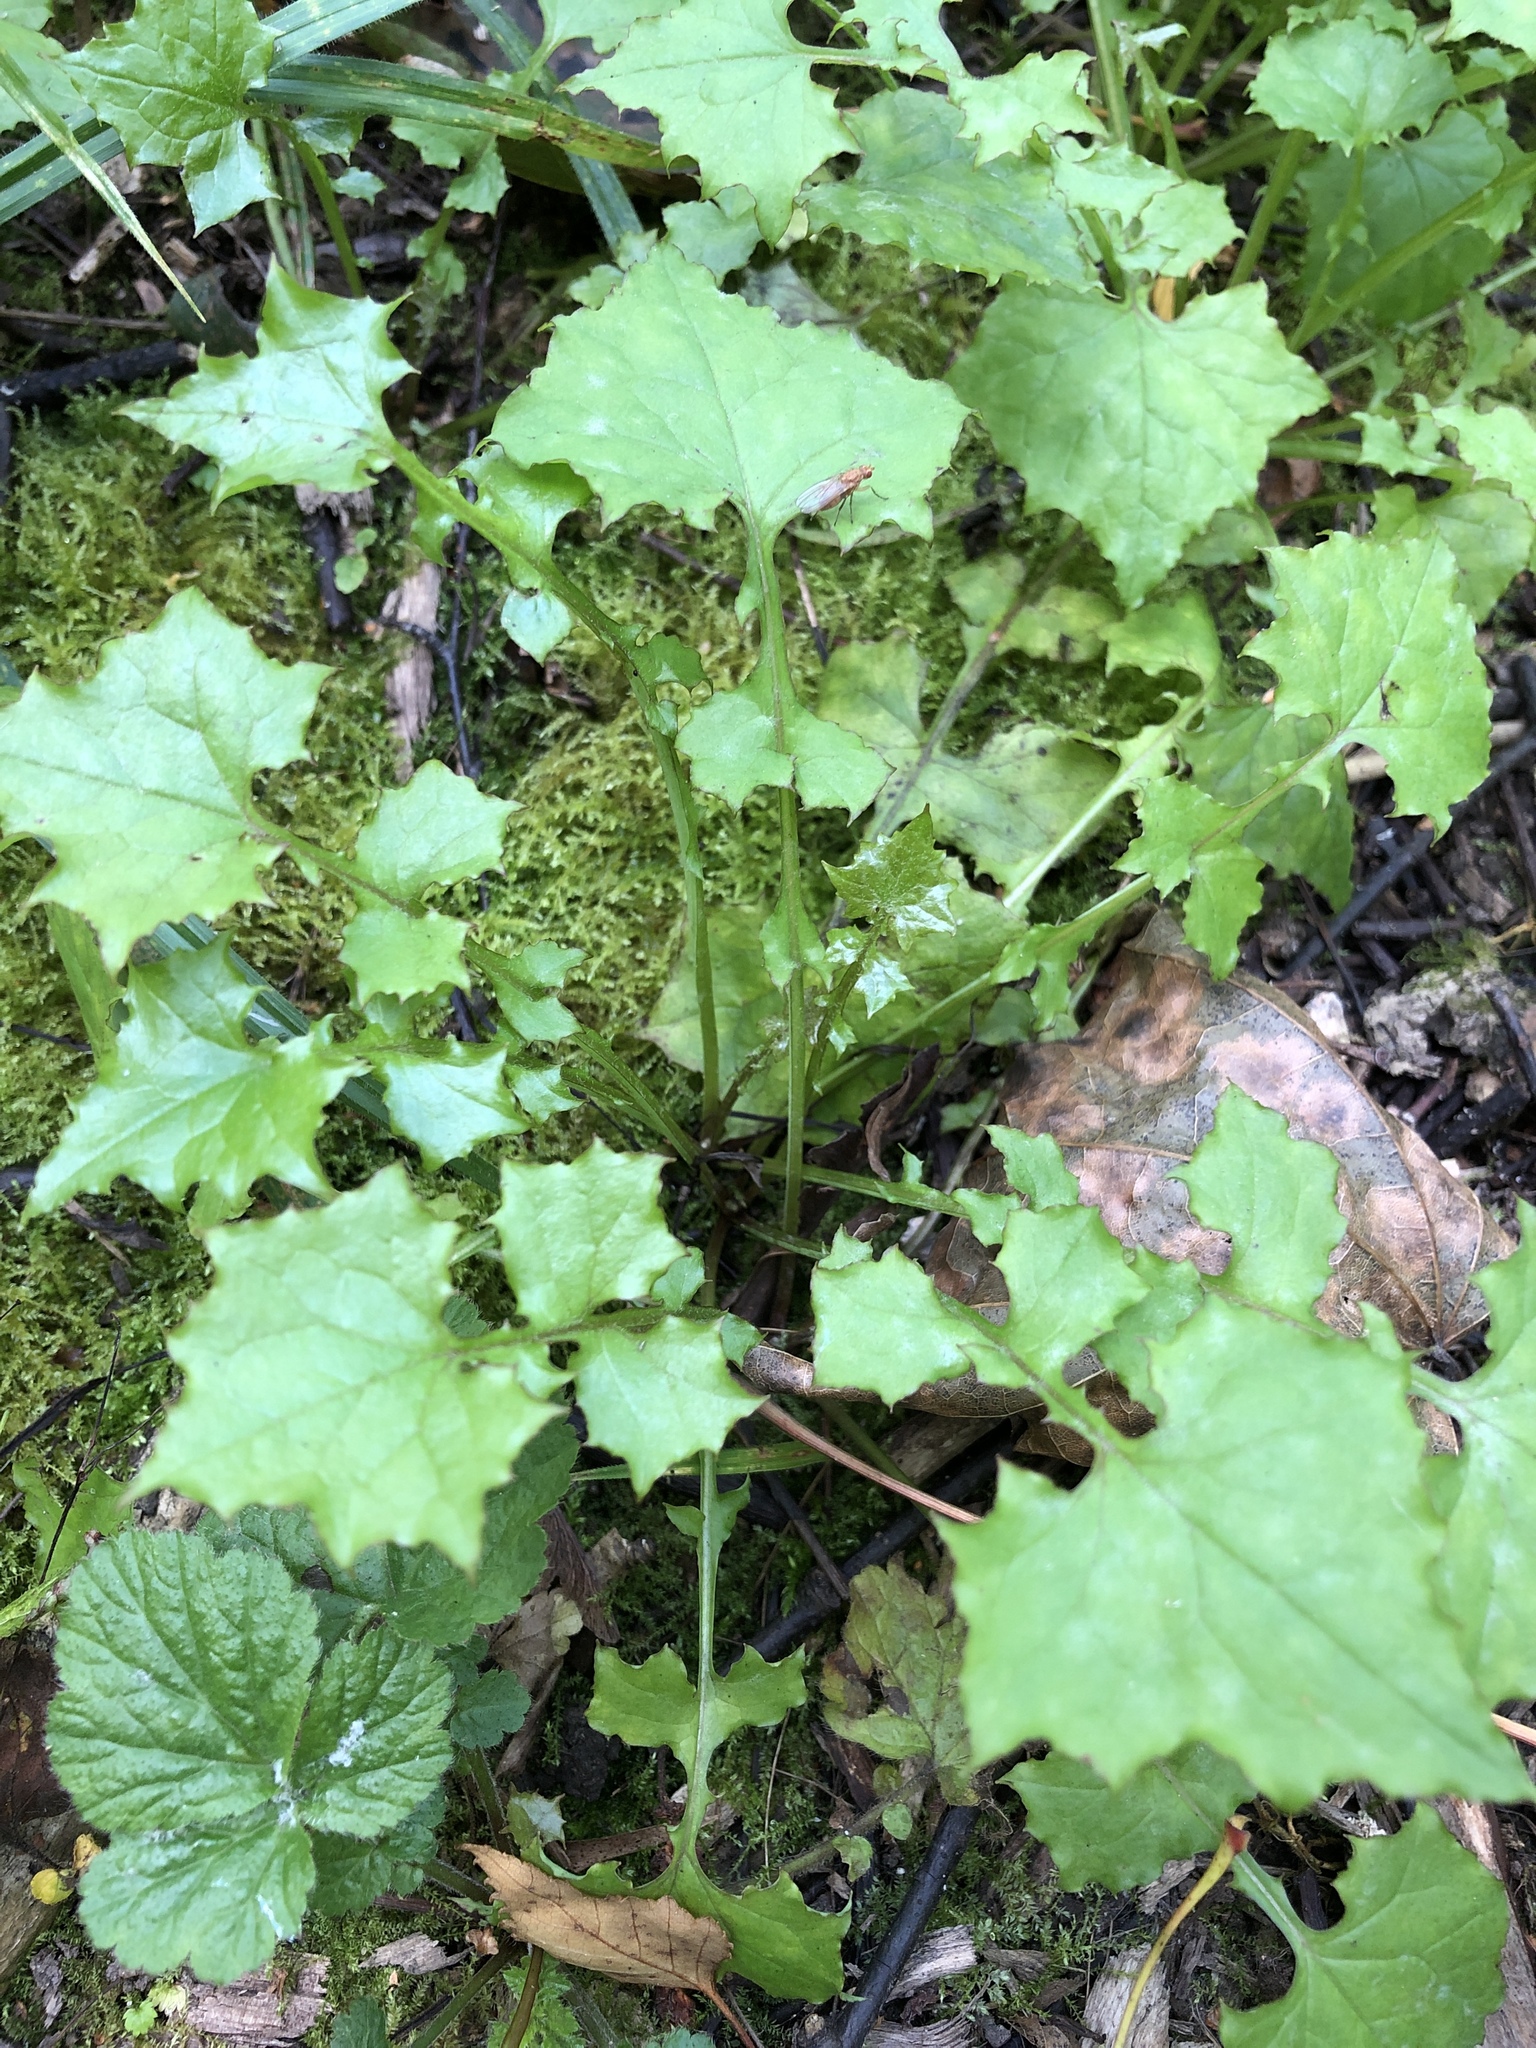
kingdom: Plantae
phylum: Tracheophyta
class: Magnoliopsida
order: Asterales
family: Asteraceae
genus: Mycelis
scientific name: Mycelis muralis
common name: Wall lettuce
